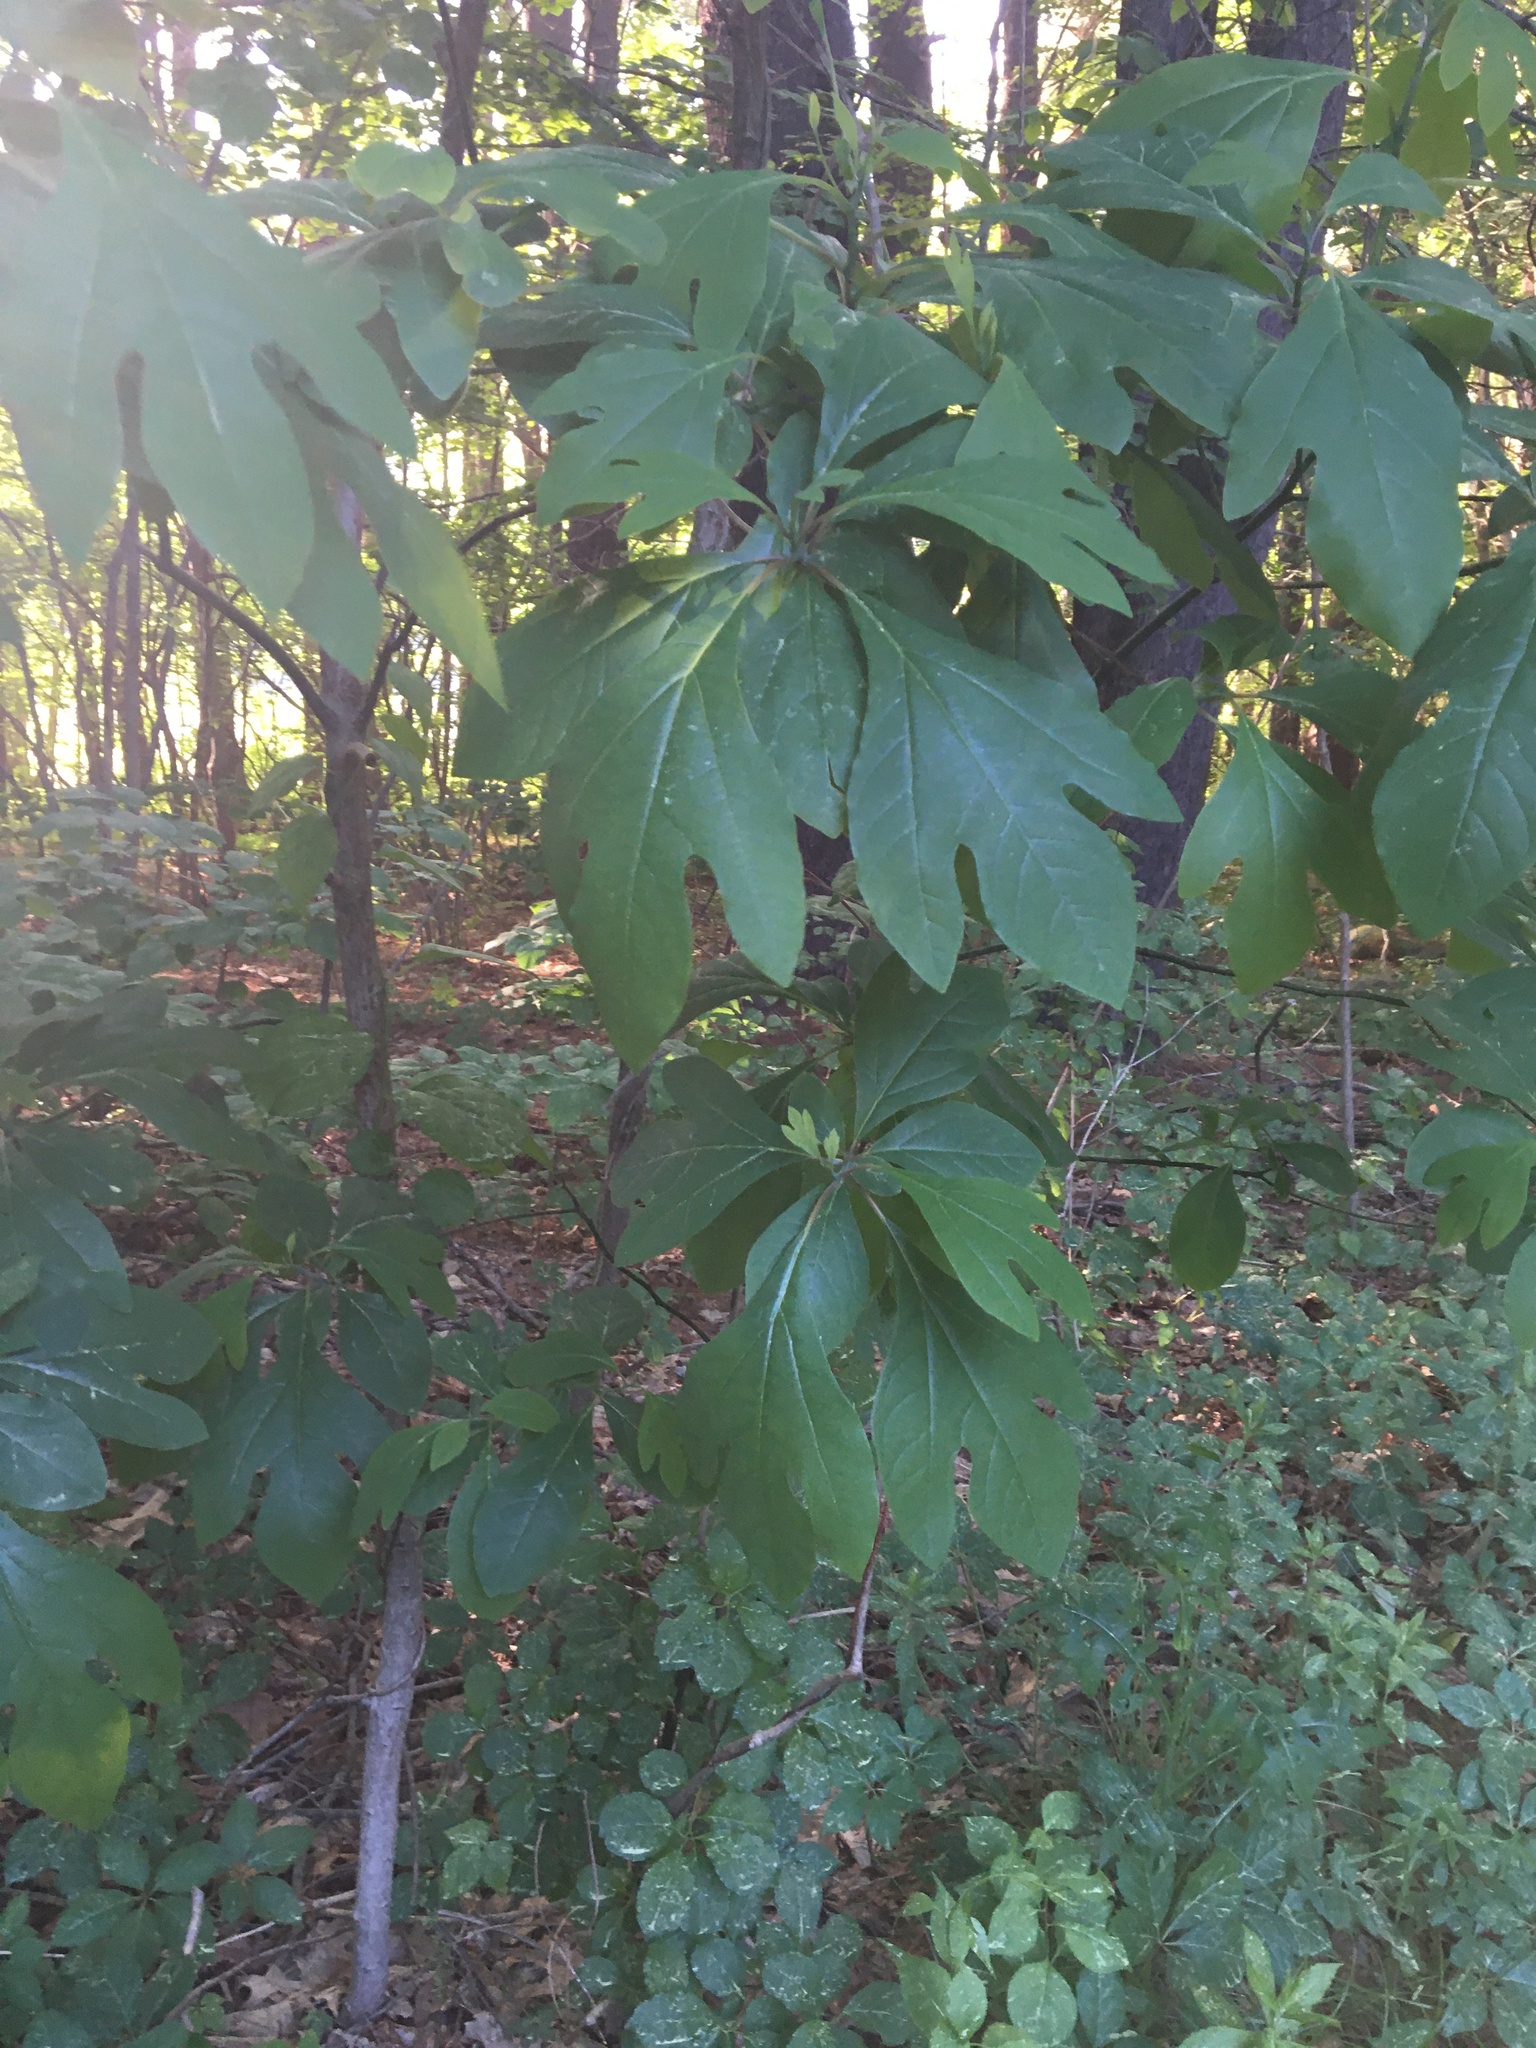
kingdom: Plantae
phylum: Tracheophyta
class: Magnoliopsida
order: Laurales
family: Lauraceae
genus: Sassafras
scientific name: Sassafras albidum
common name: Sassafras
